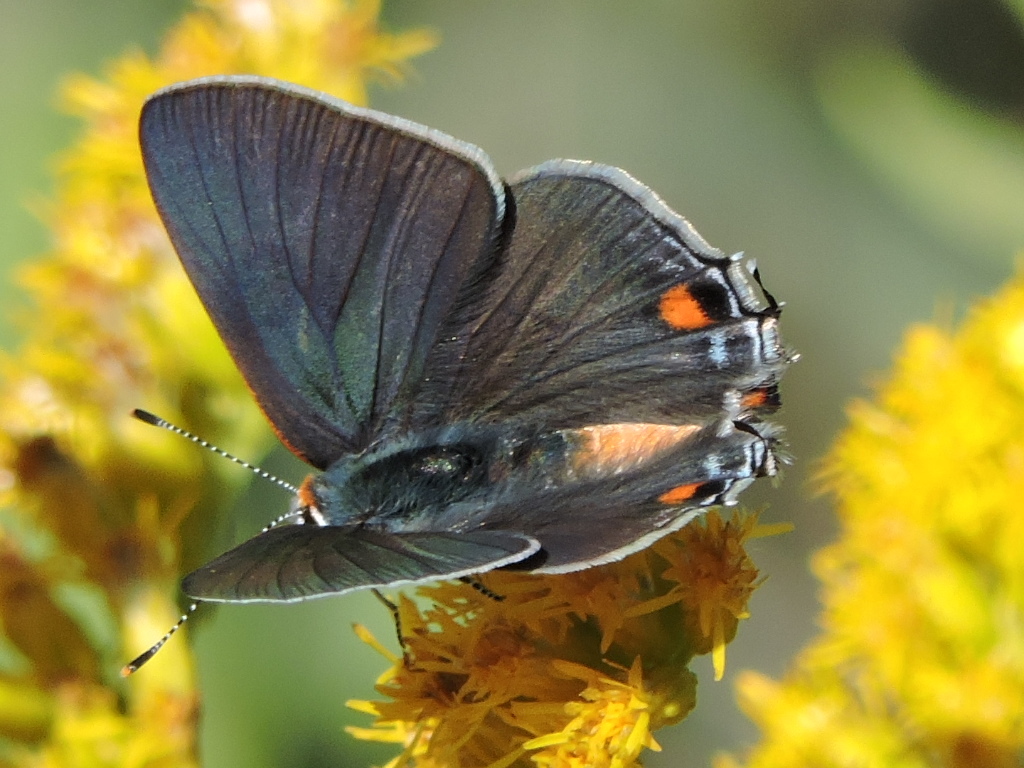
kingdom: Animalia
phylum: Arthropoda
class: Insecta
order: Lepidoptera
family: Lycaenidae
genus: Strymon
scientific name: Strymon melinus
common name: Gray hairstreak
